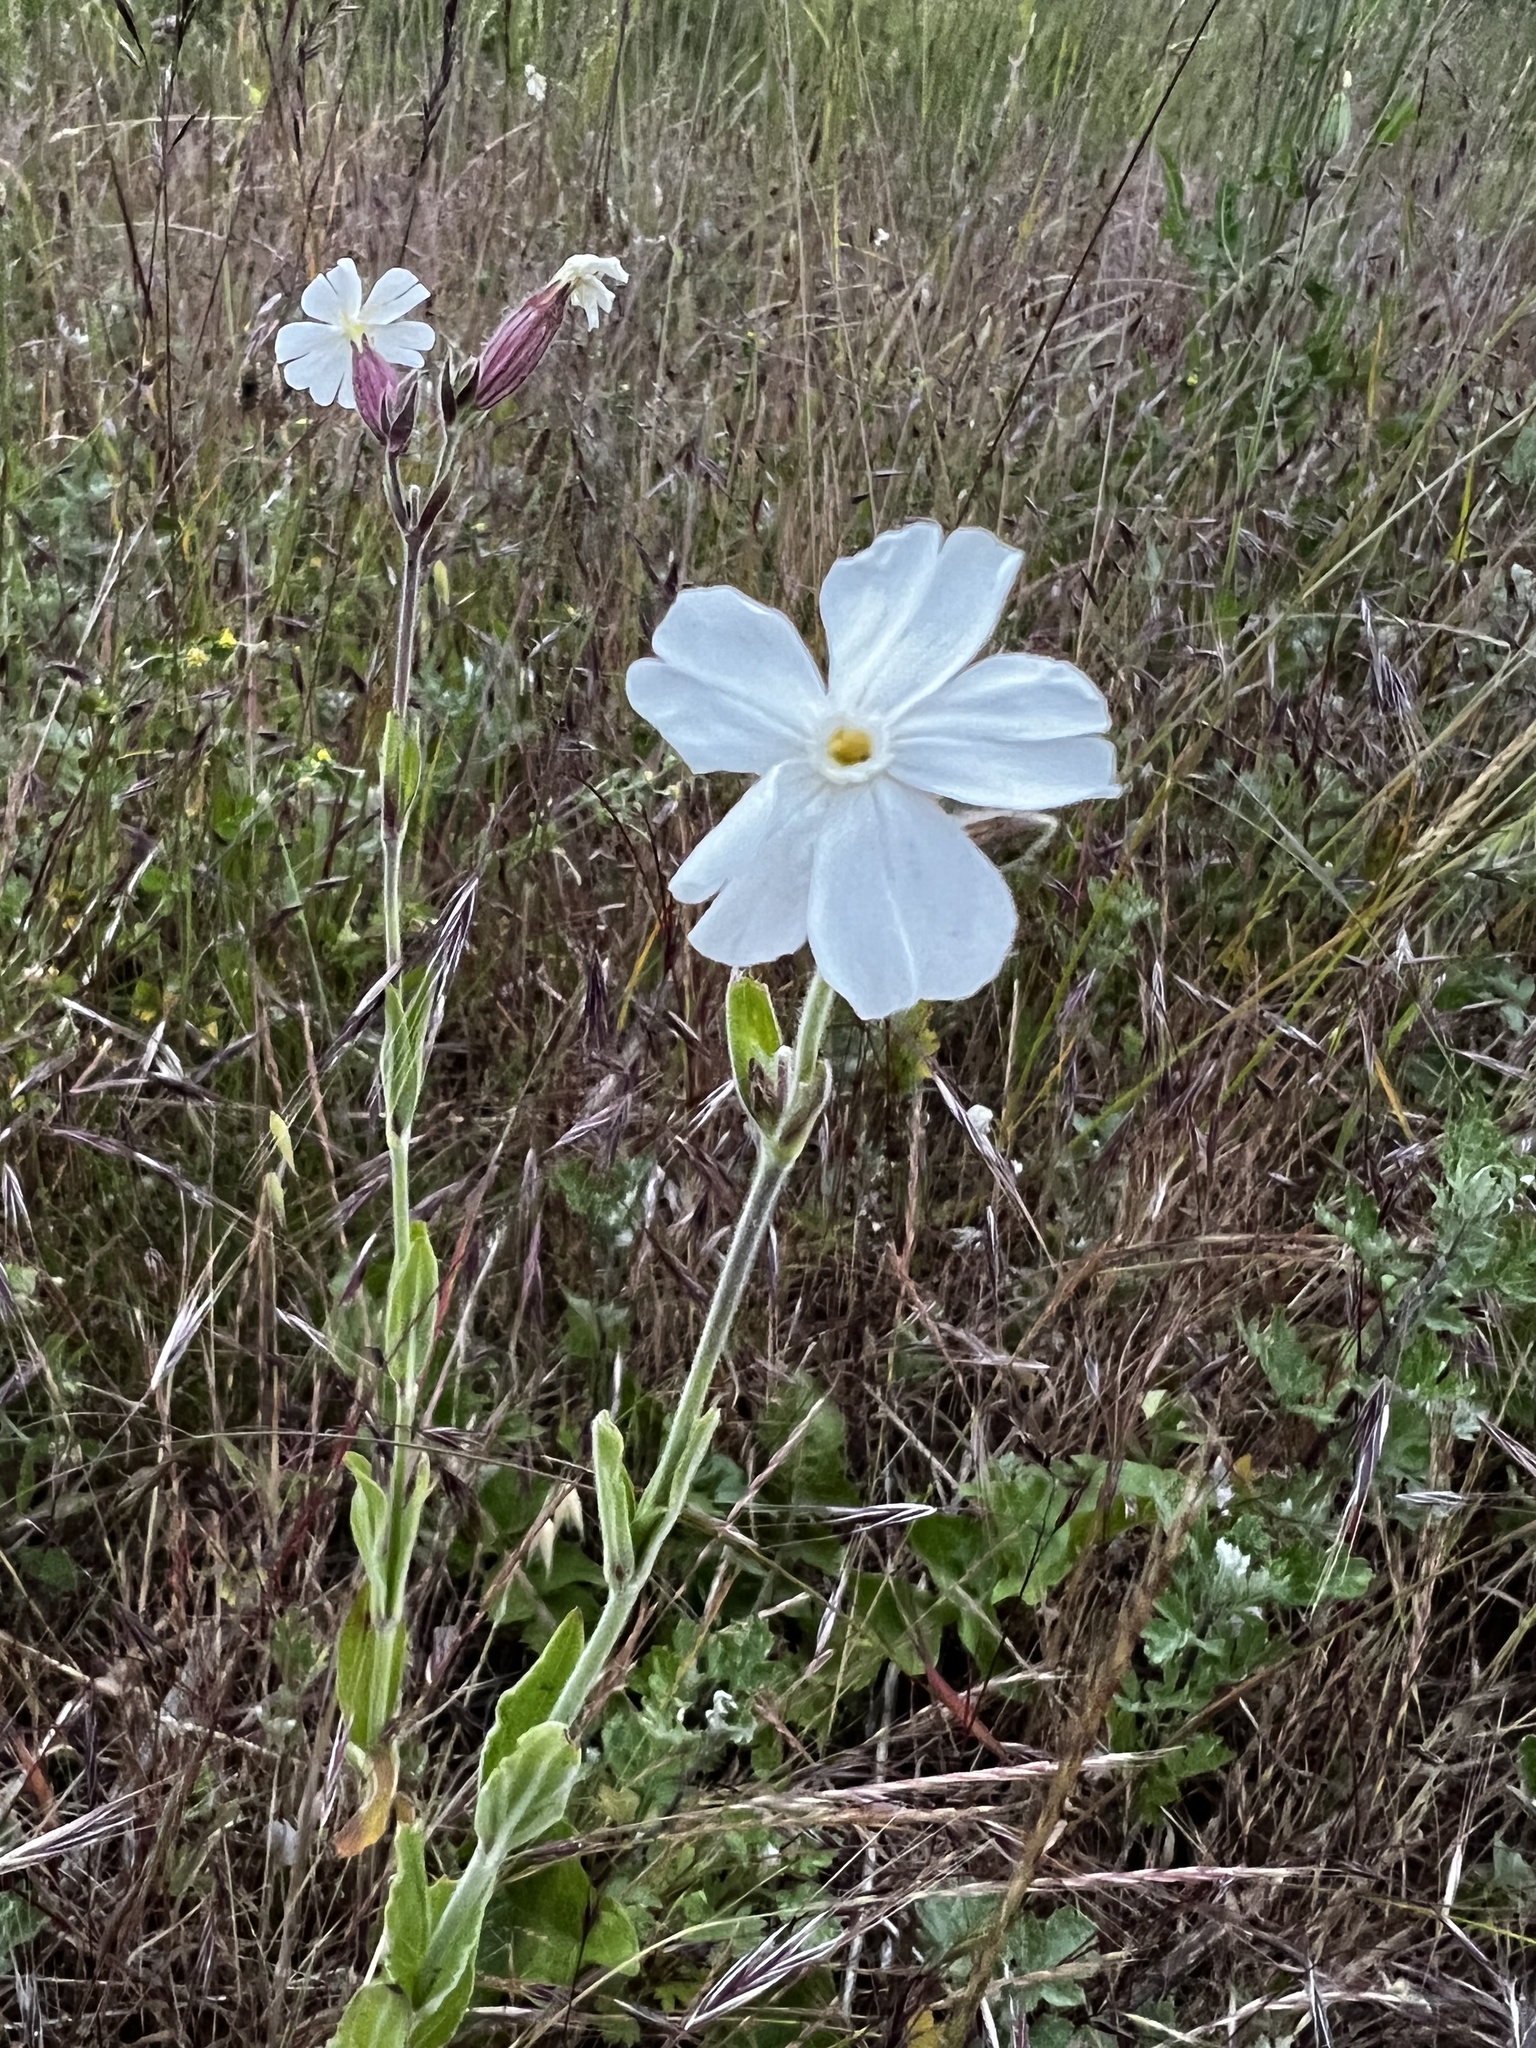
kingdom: Plantae
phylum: Tracheophyta
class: Magnoliopsida
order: Caryophyllales
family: Caryophyllaceae
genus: Silene
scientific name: Silene latifolia
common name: White campion
